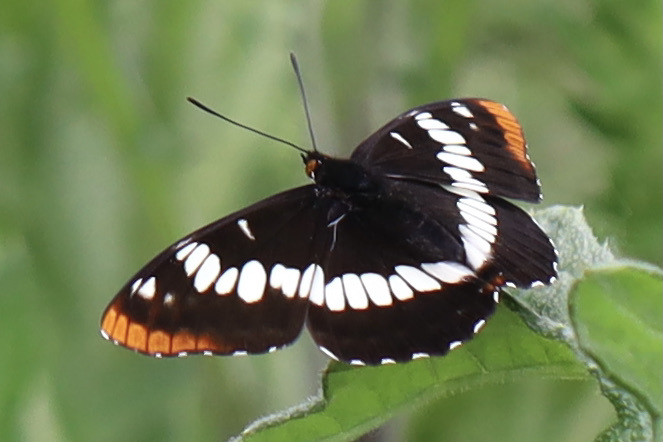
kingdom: Animalia
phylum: Arthropoda
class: Insecta
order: Lepidoptera
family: Nymphalidae
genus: Limenitis
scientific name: Limenitis lorquini
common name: Lorquin's admiral
